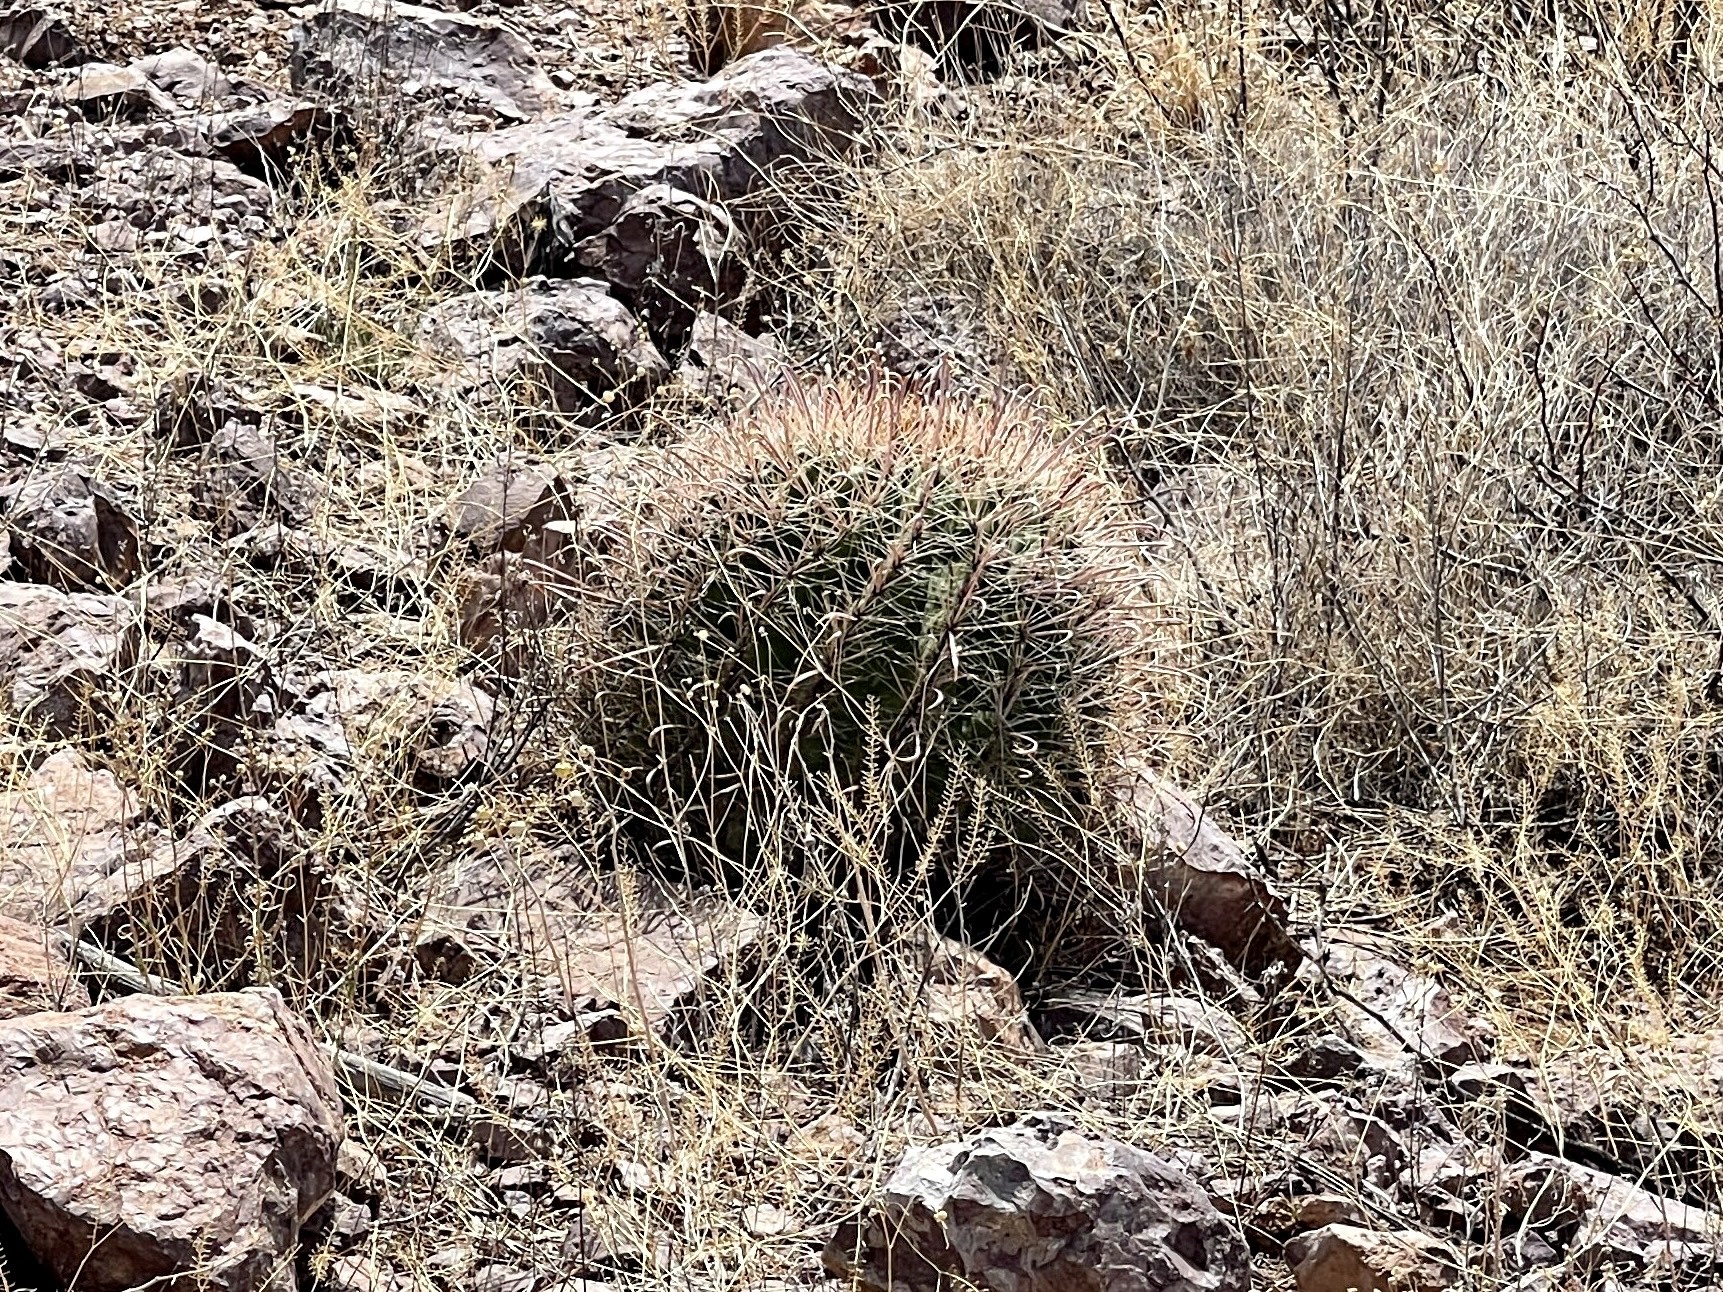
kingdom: Plantae
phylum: Tracheophyta
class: Magnoliopsida
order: Caryophyllales
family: Cactaceae
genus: Ferocactus
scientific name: Ferocactus wislizeni
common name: Candy barrel cactus
